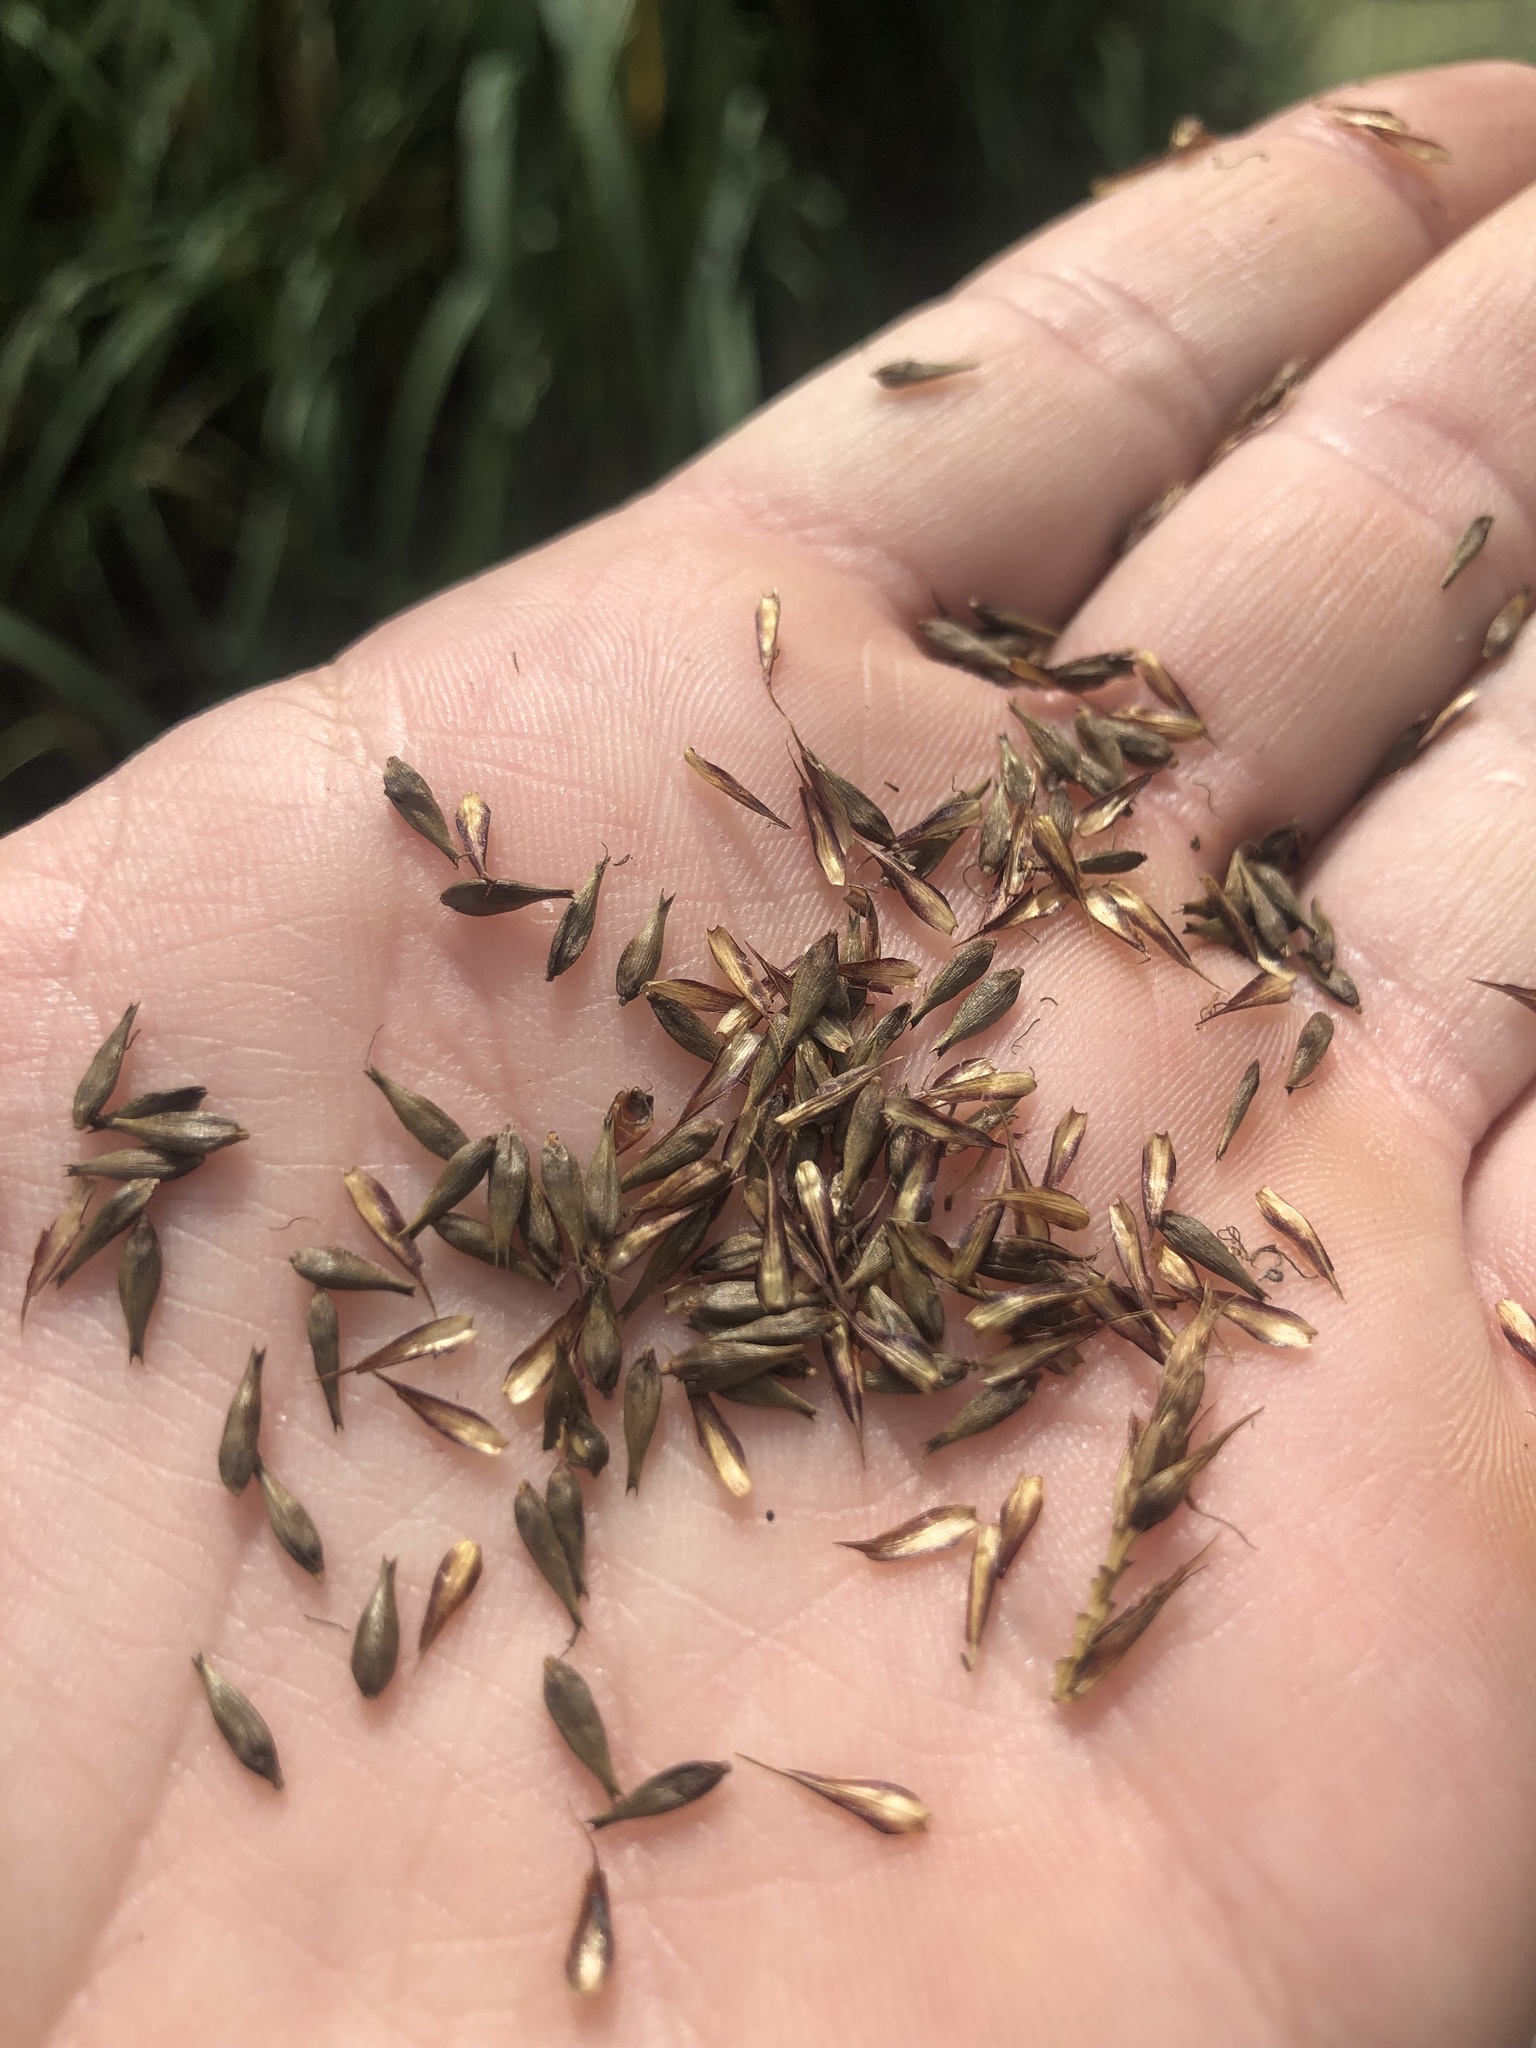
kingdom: Plantae
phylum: Tracheophyta
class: Liliopsida
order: Poales
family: Cyperaceae
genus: Carex
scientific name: Carex riparia
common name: Greater pond-sedge
